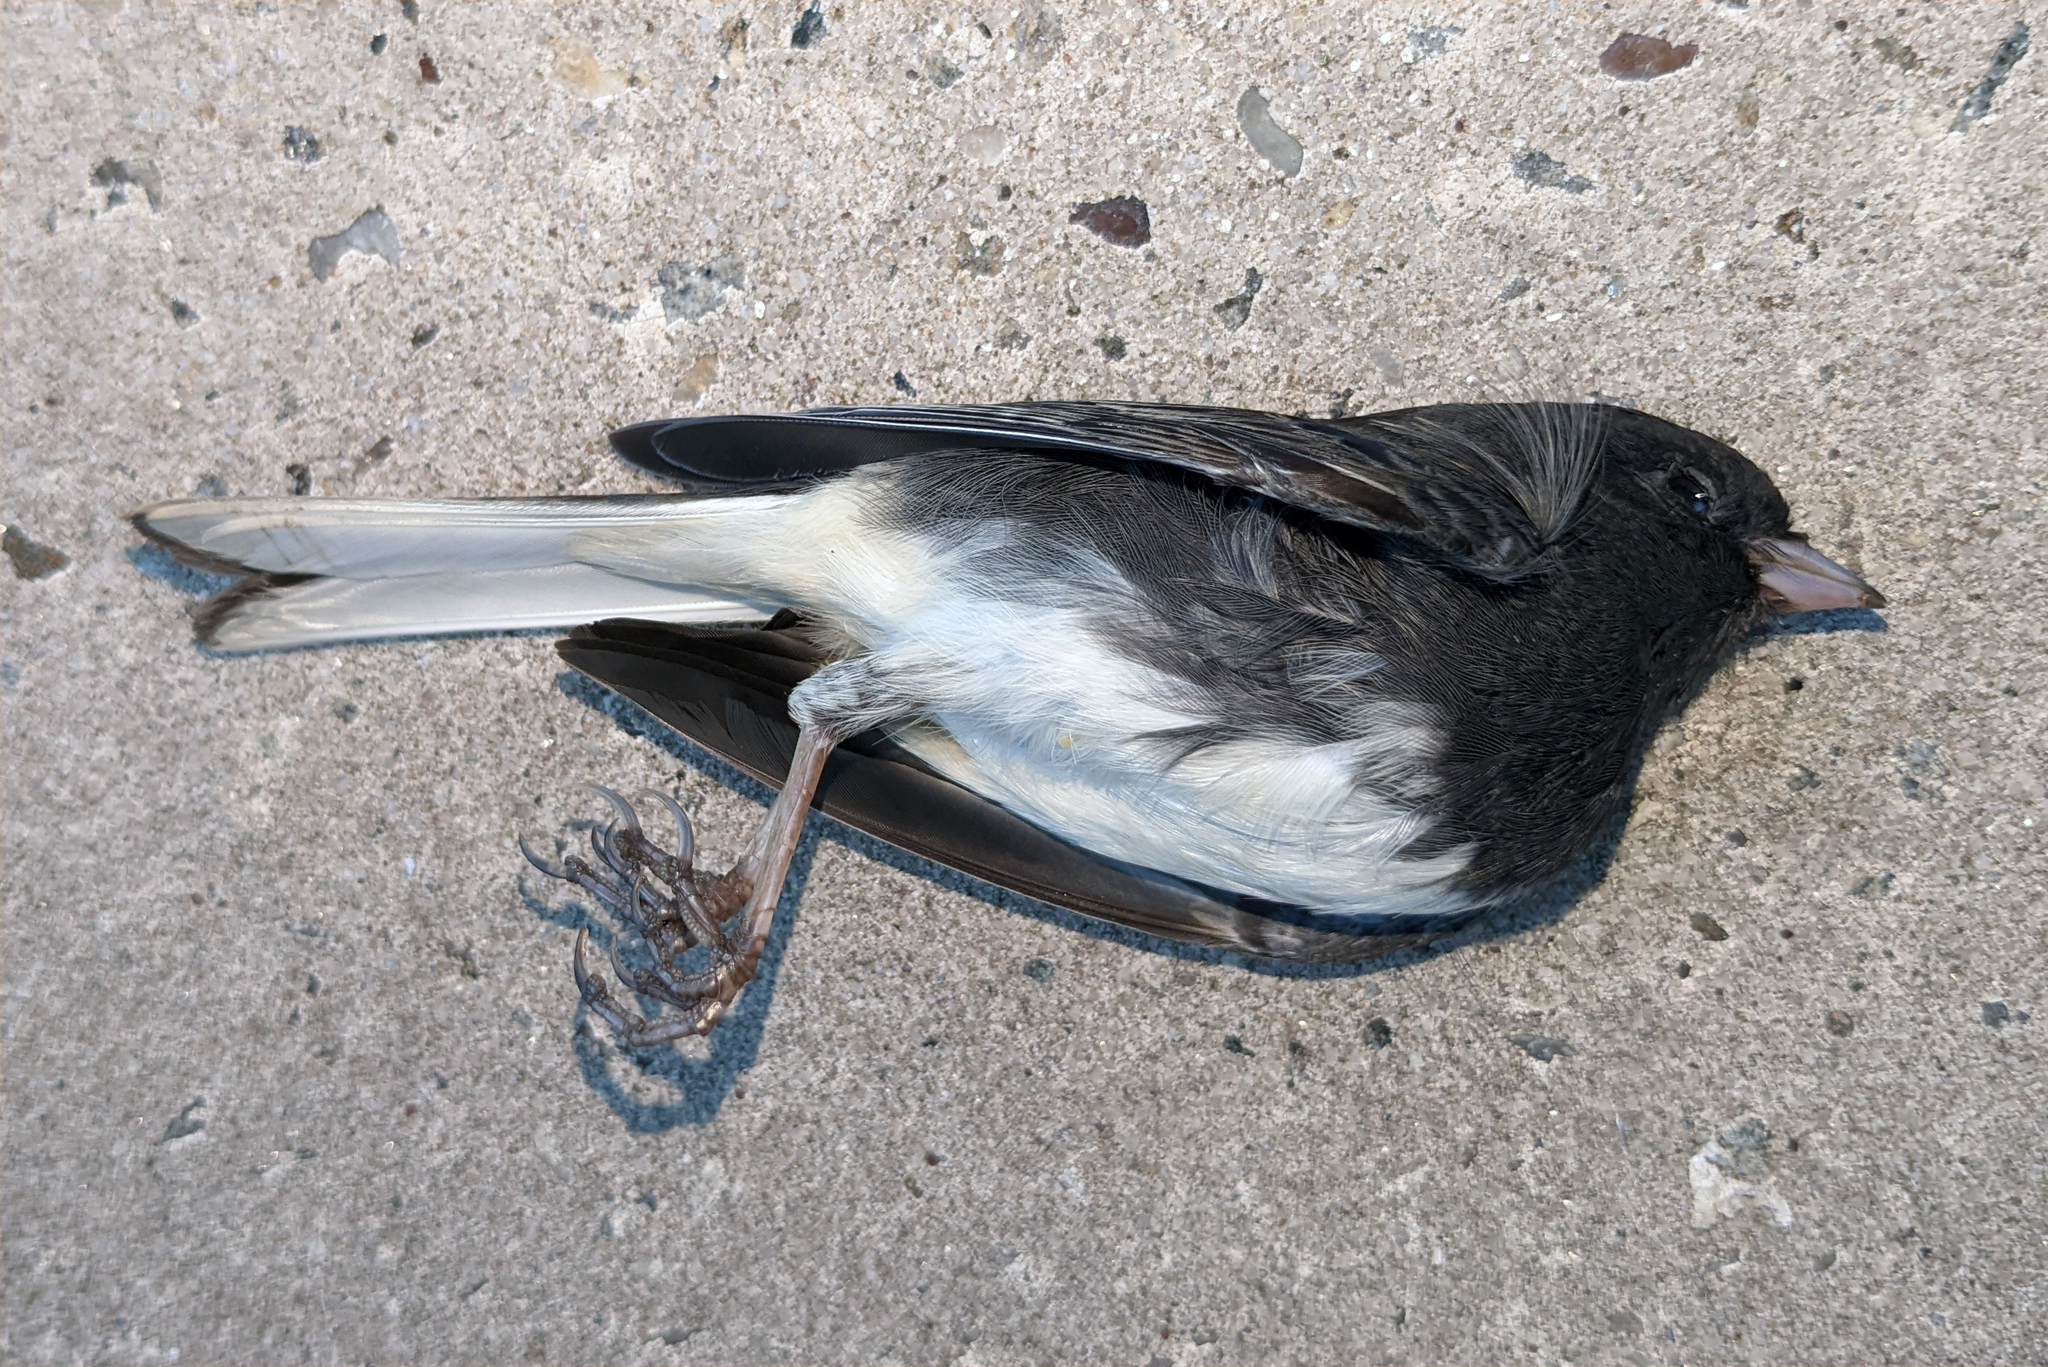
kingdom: Animalia
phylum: Chordata
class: Aves
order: Passeriformes
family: Passerellidae
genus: Junco
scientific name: Junco hyemalis
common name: Dark-eyed junco
